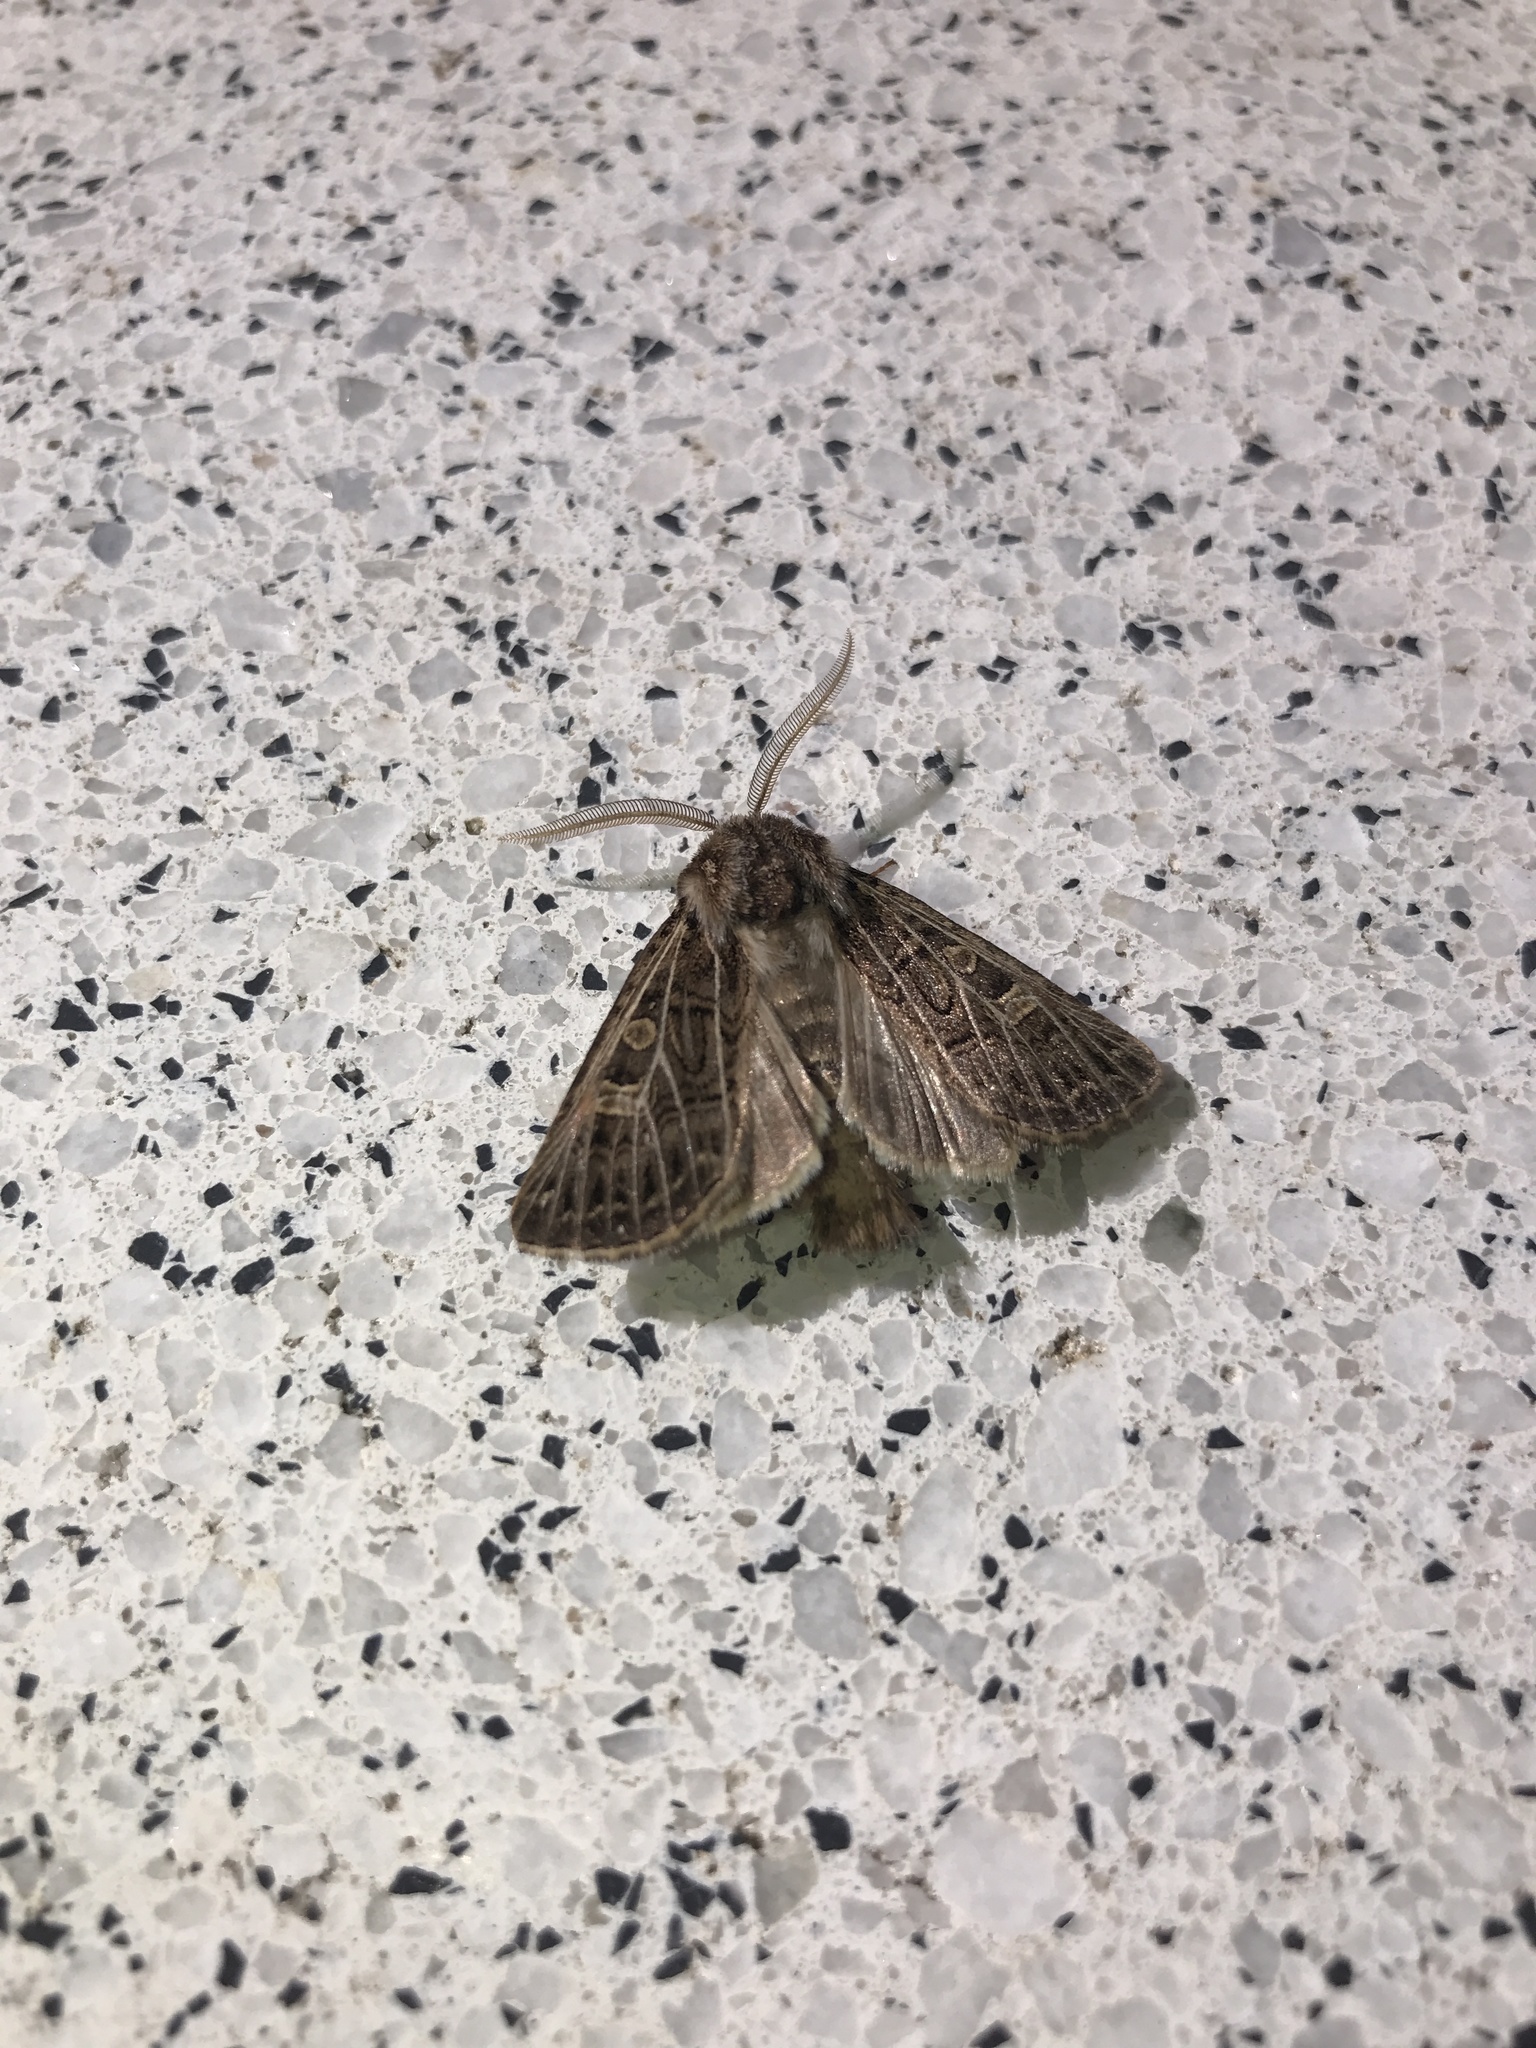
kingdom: Animalia
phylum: Arthropoda
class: Insecta
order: Lepidoptera
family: Noctuidae
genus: Tholera
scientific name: Tholera decimalis
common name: Feathered gothic
